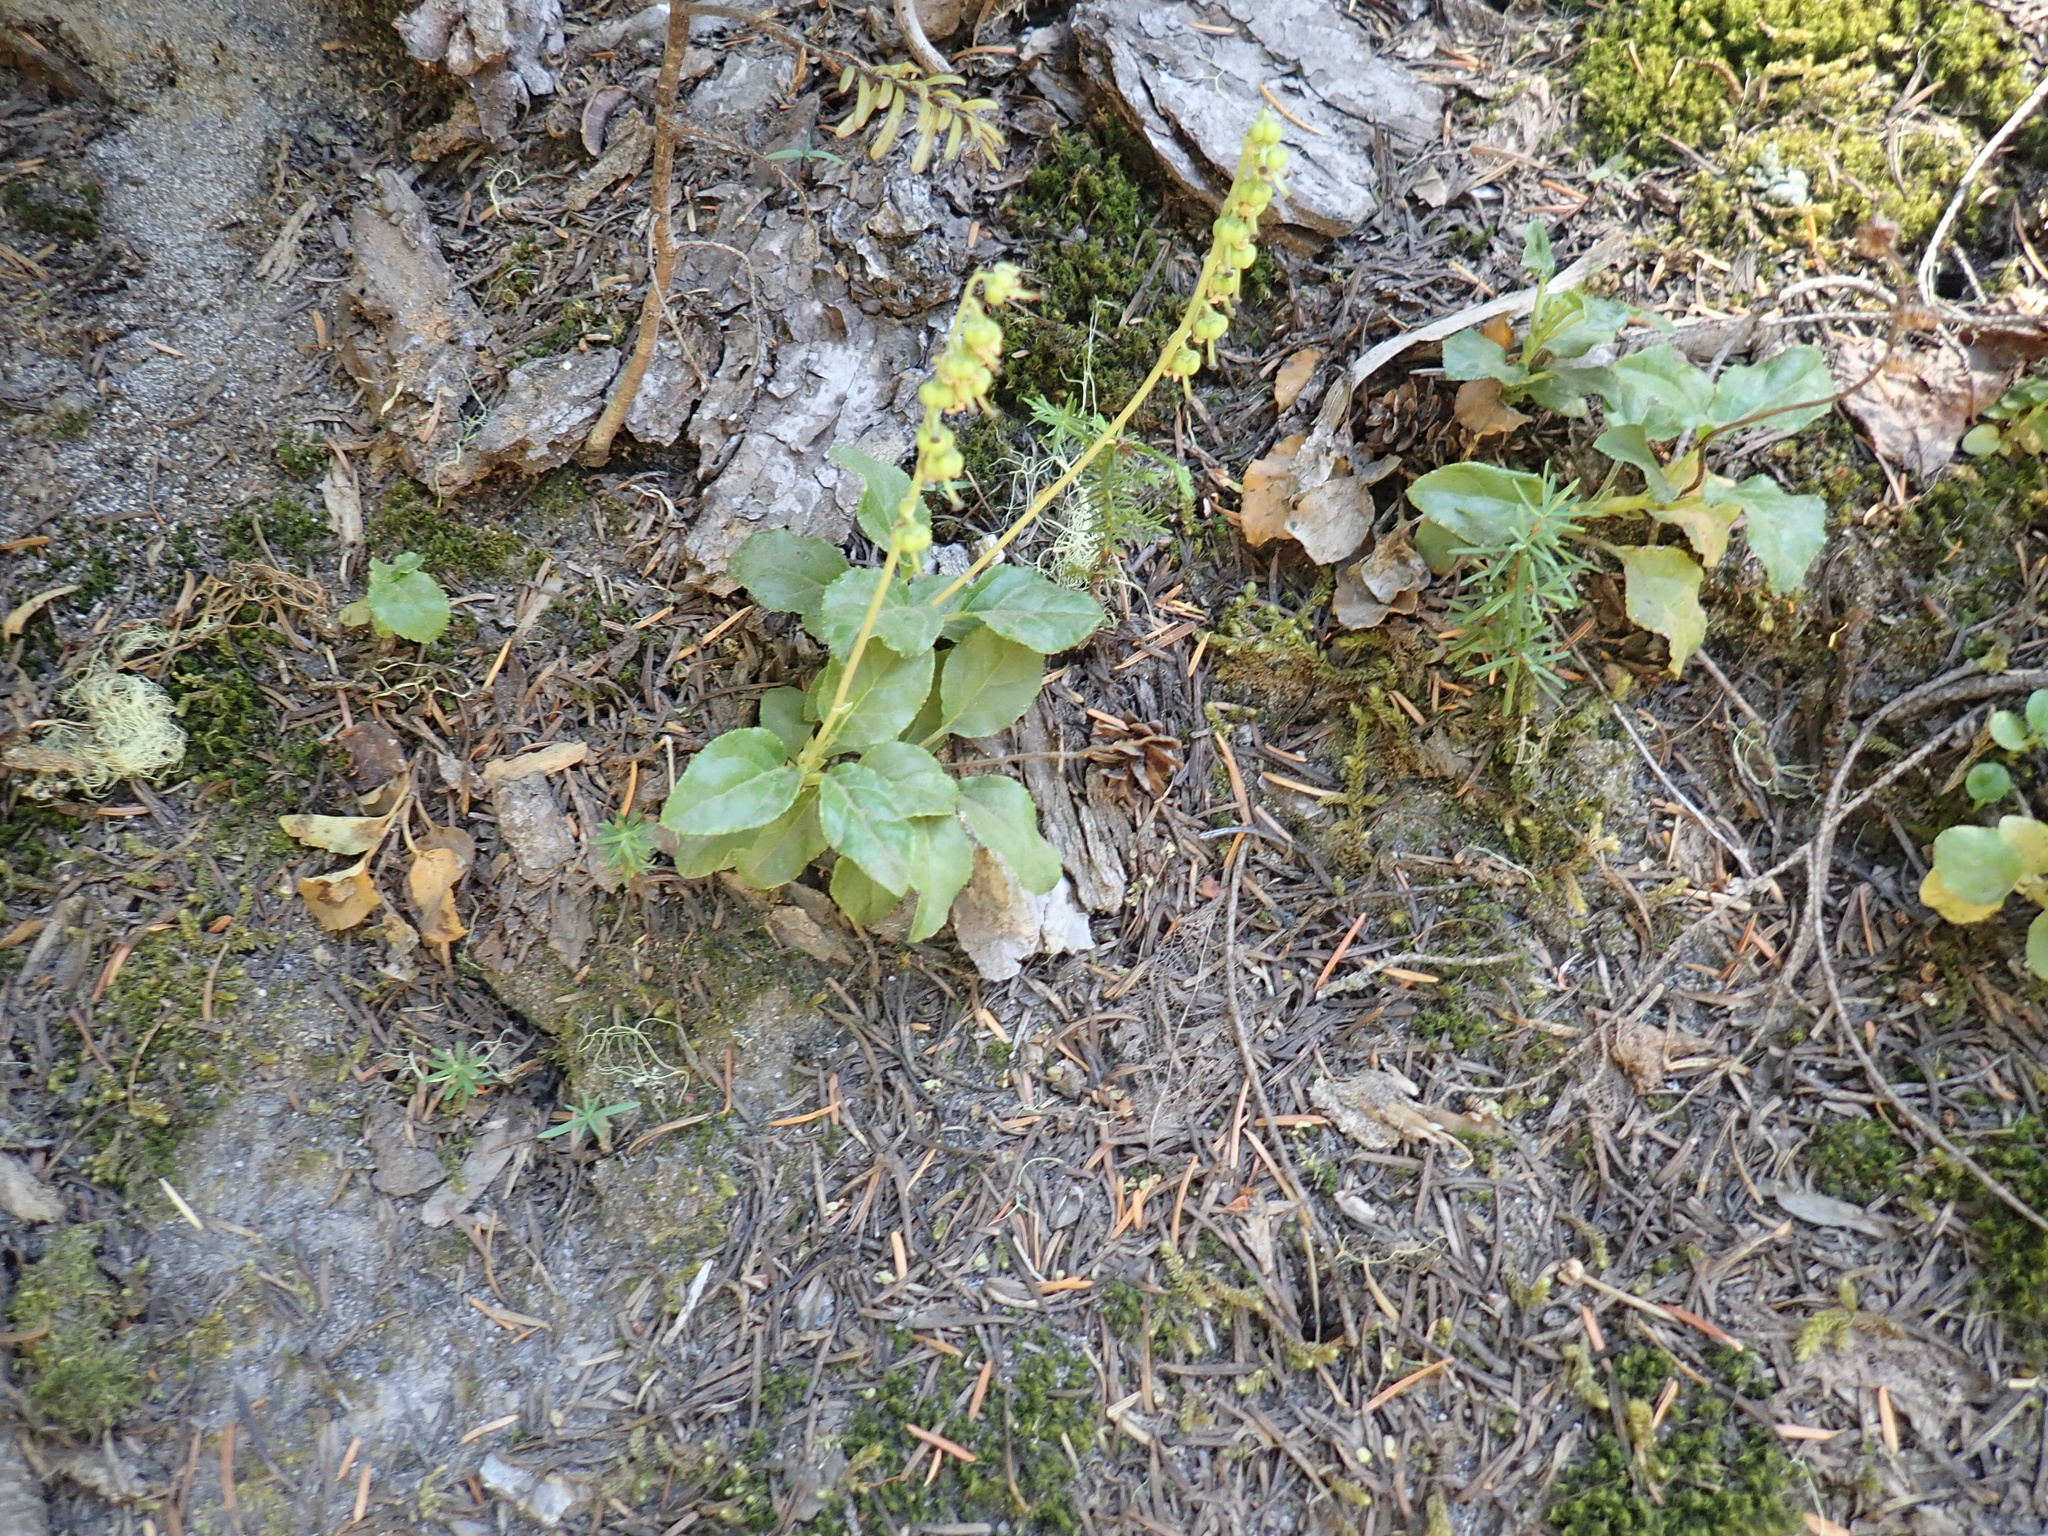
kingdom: Plantae
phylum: Tracheophyta
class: Magnoliopsida
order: Ericales
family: Ericaceae
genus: Orthilia
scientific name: Orthilia secunda
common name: One-sided orthilia
